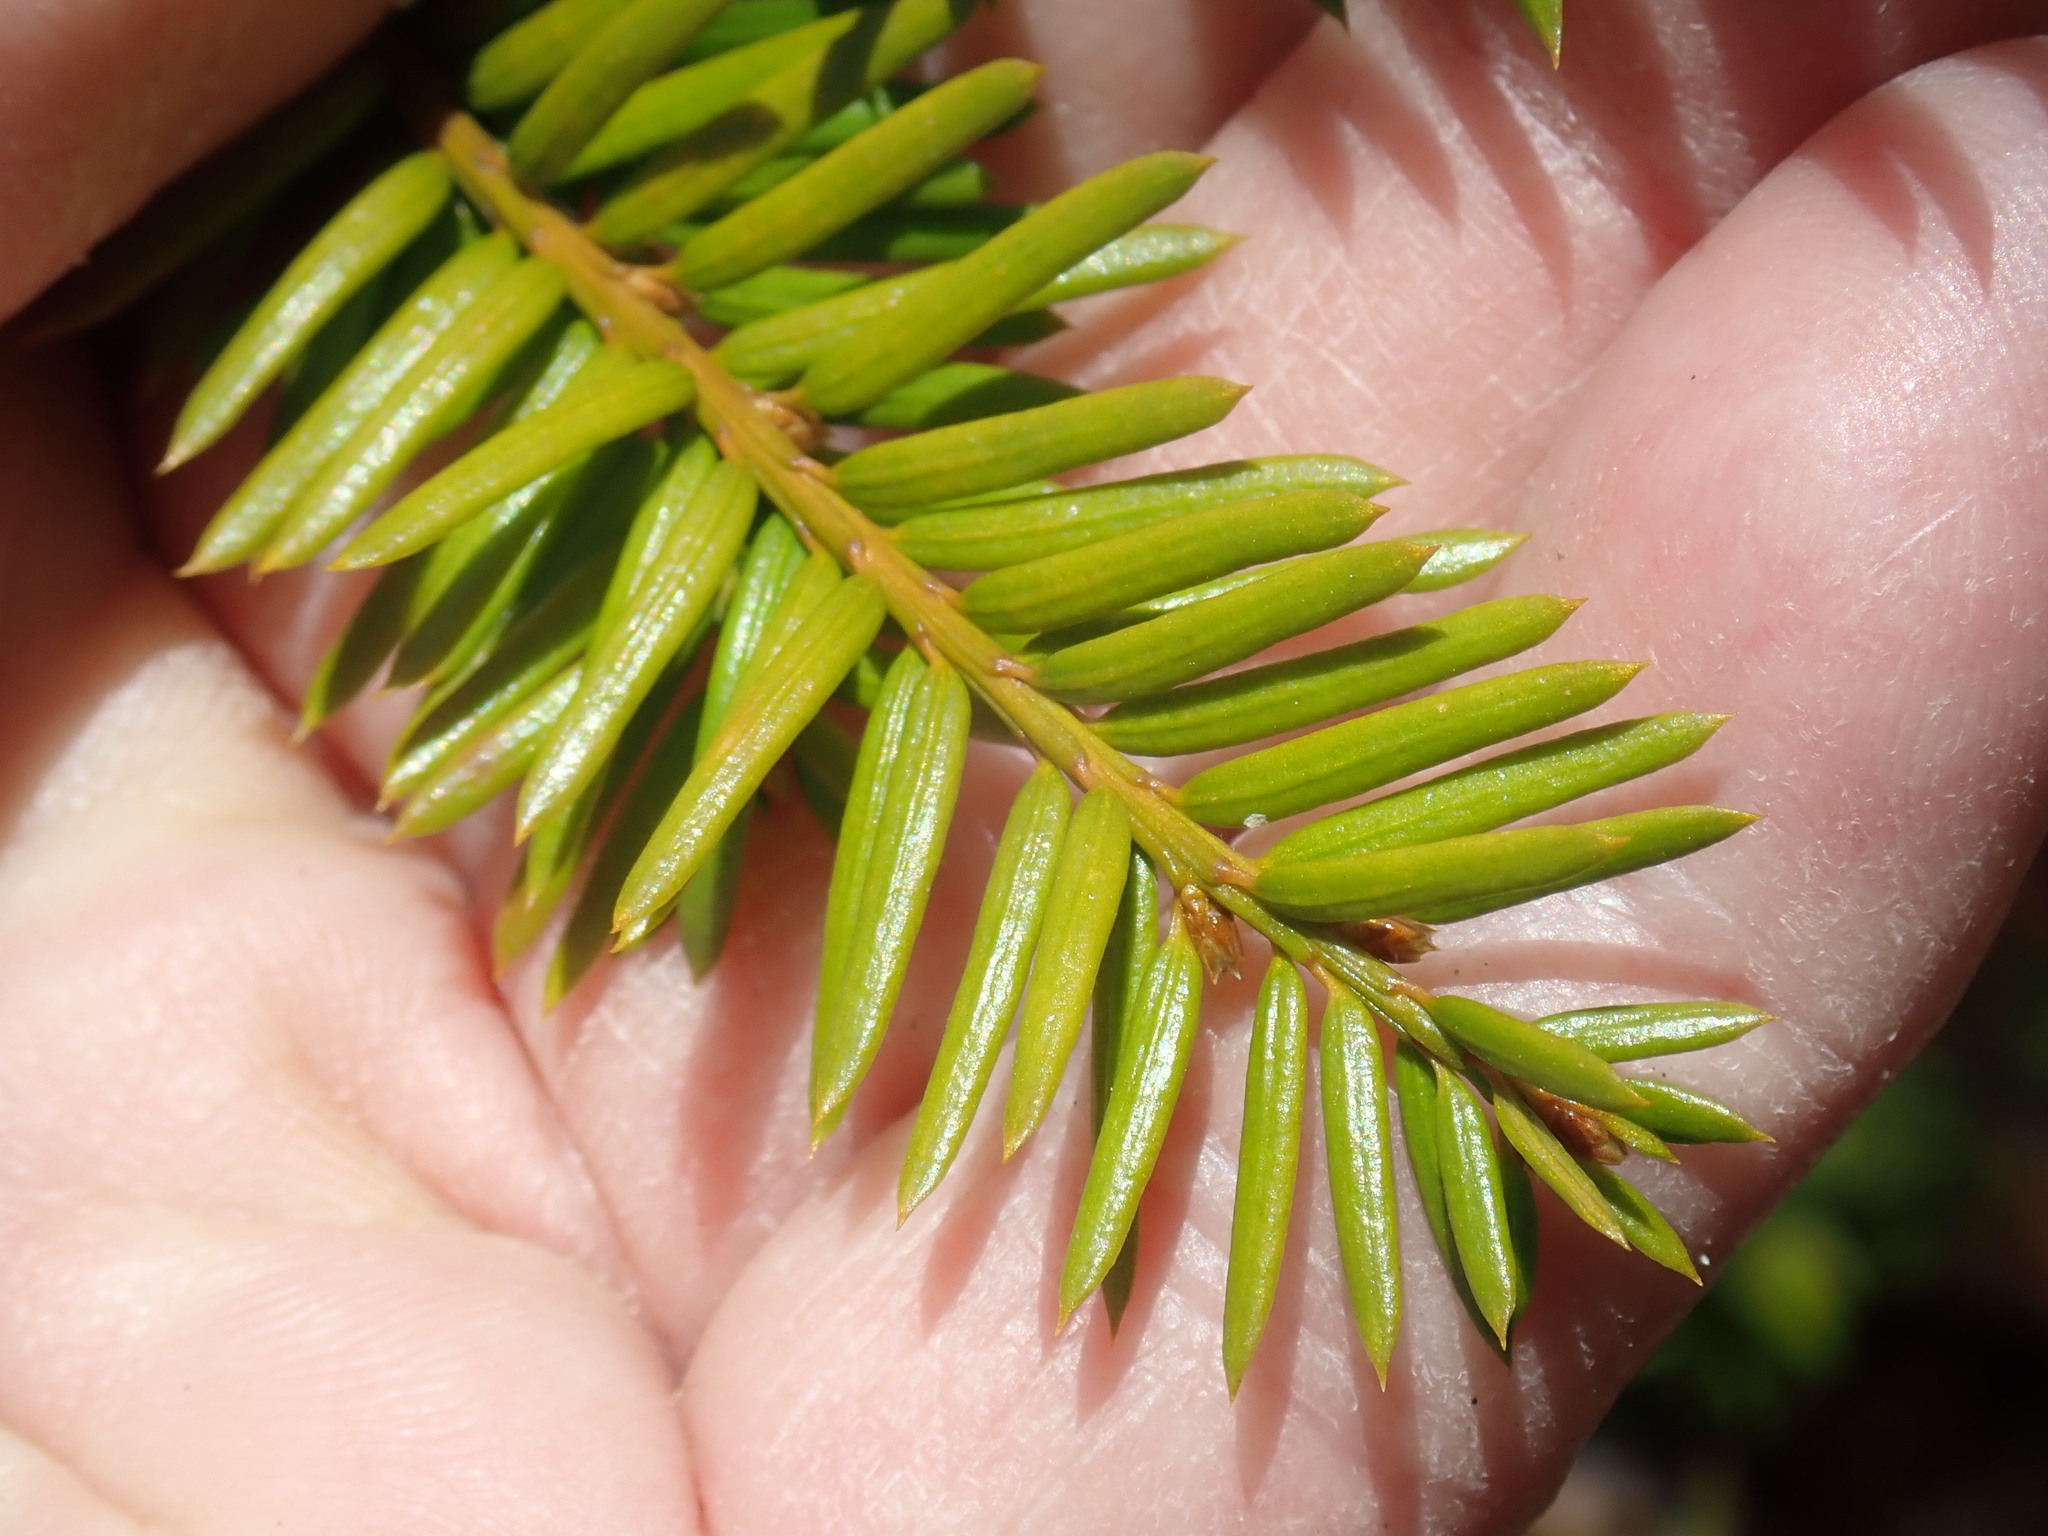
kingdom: Plantae
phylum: Tracheophyta
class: Pinopsida
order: Pinales
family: Taxaceae
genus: Taxus
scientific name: Taxus canadensis
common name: American yew
